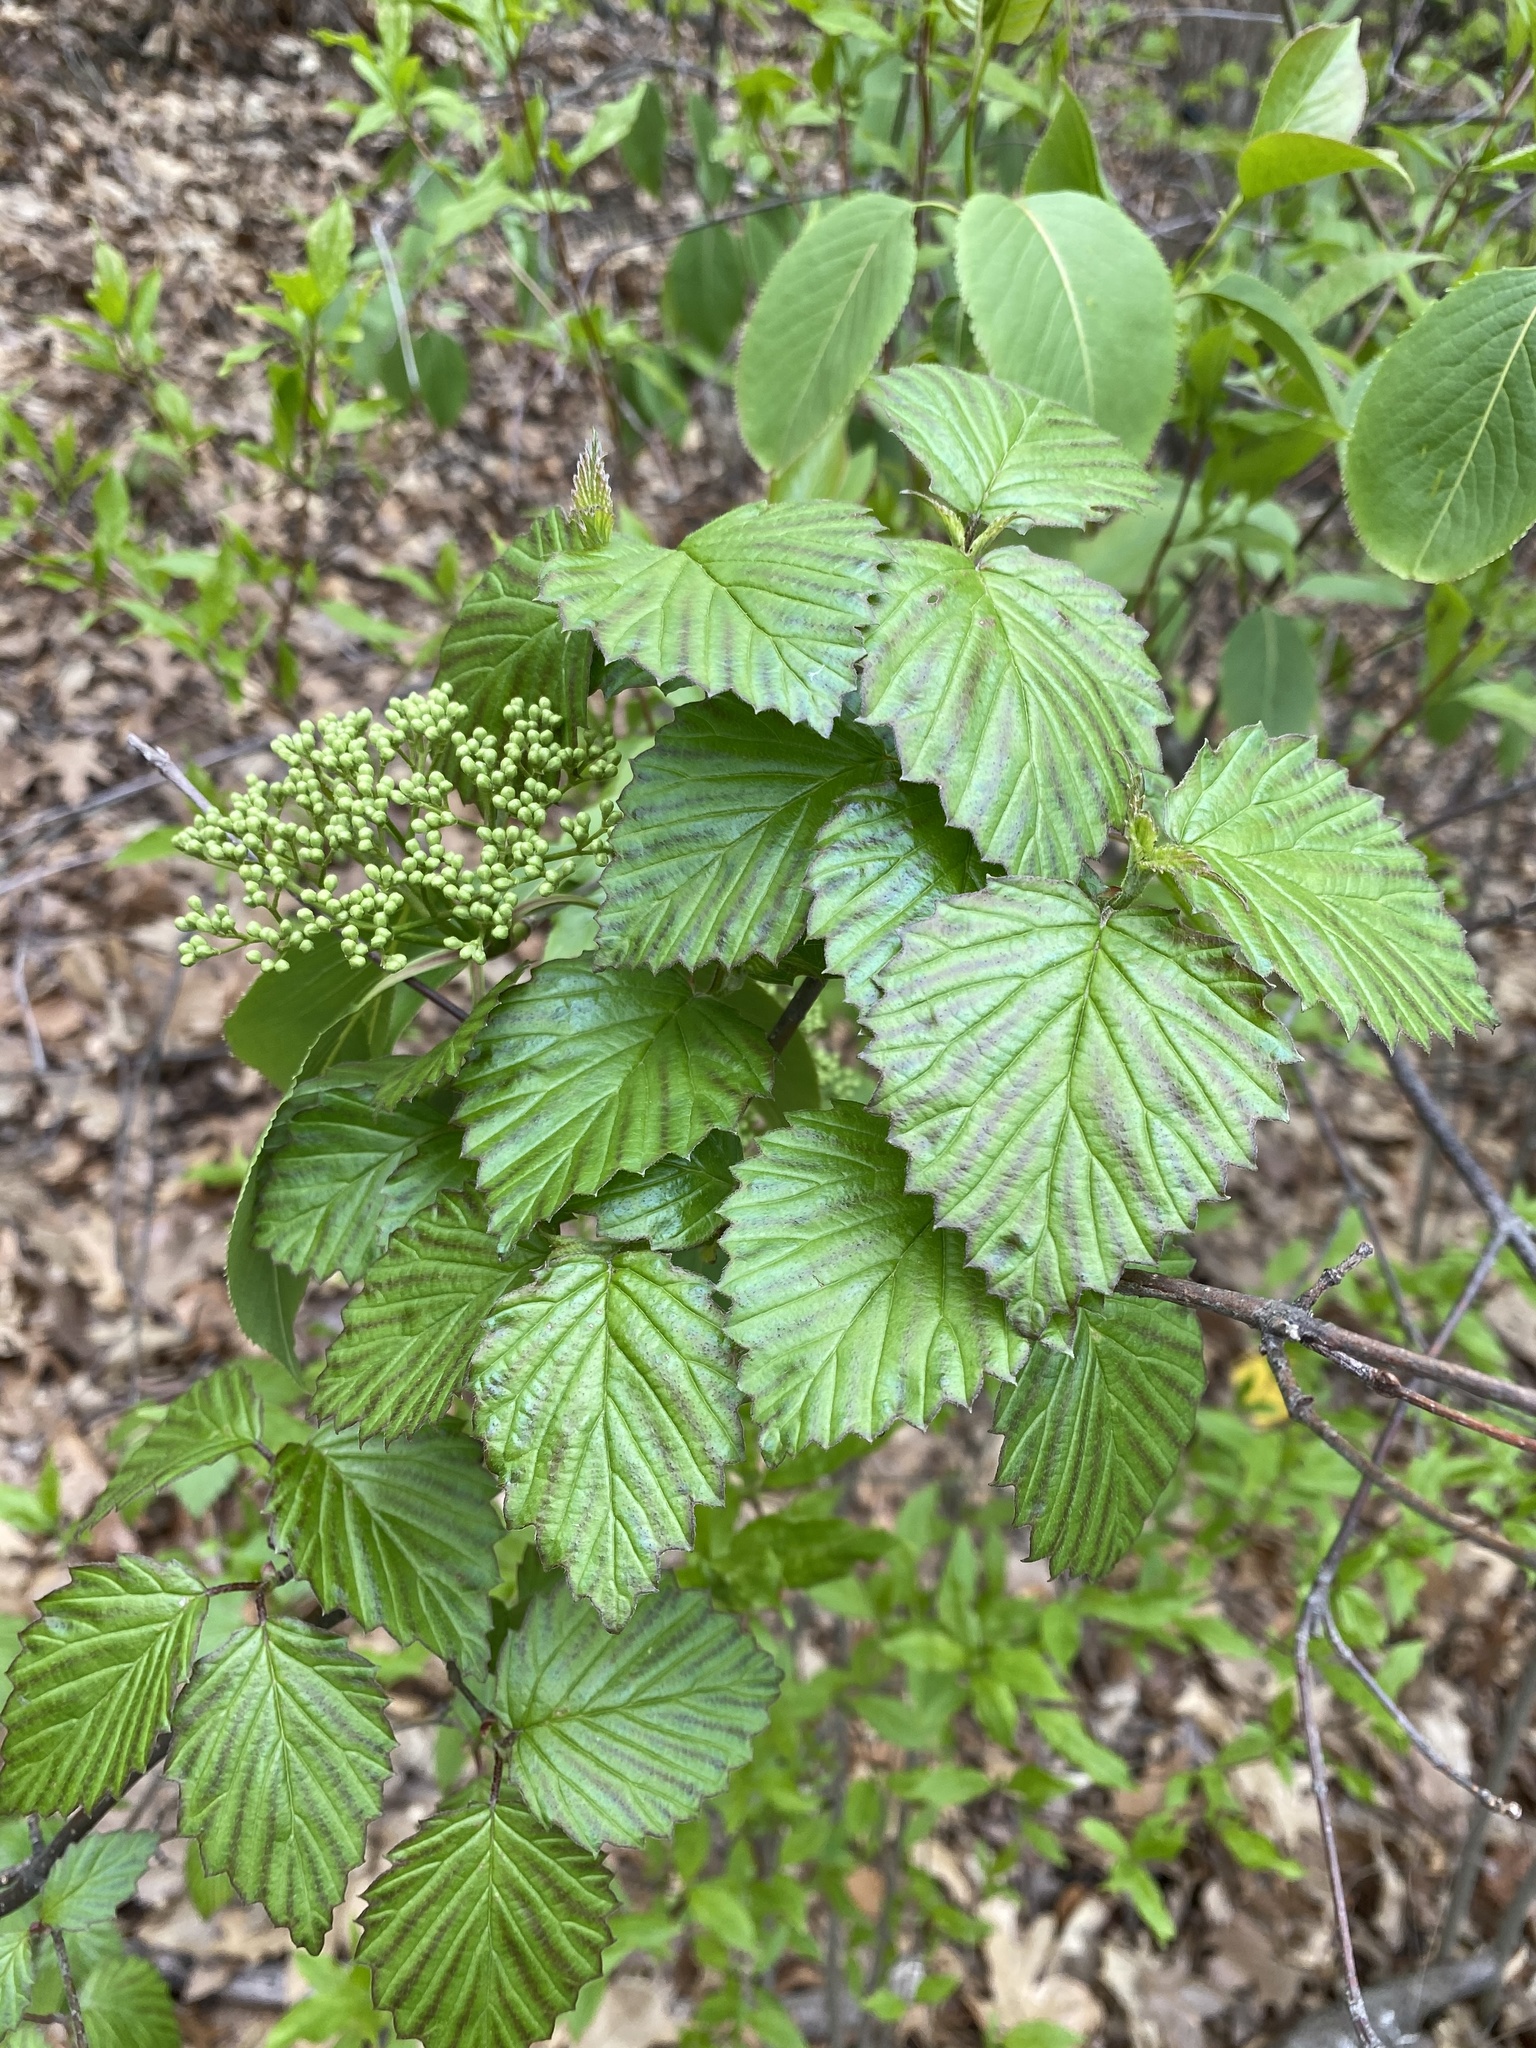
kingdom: Plantae
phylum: Tracheophyta
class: Magnoliopsida
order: Dipsacales
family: Viburnaceae
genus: Viburnum
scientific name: Viburnum dentatum
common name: Arrow-wood
